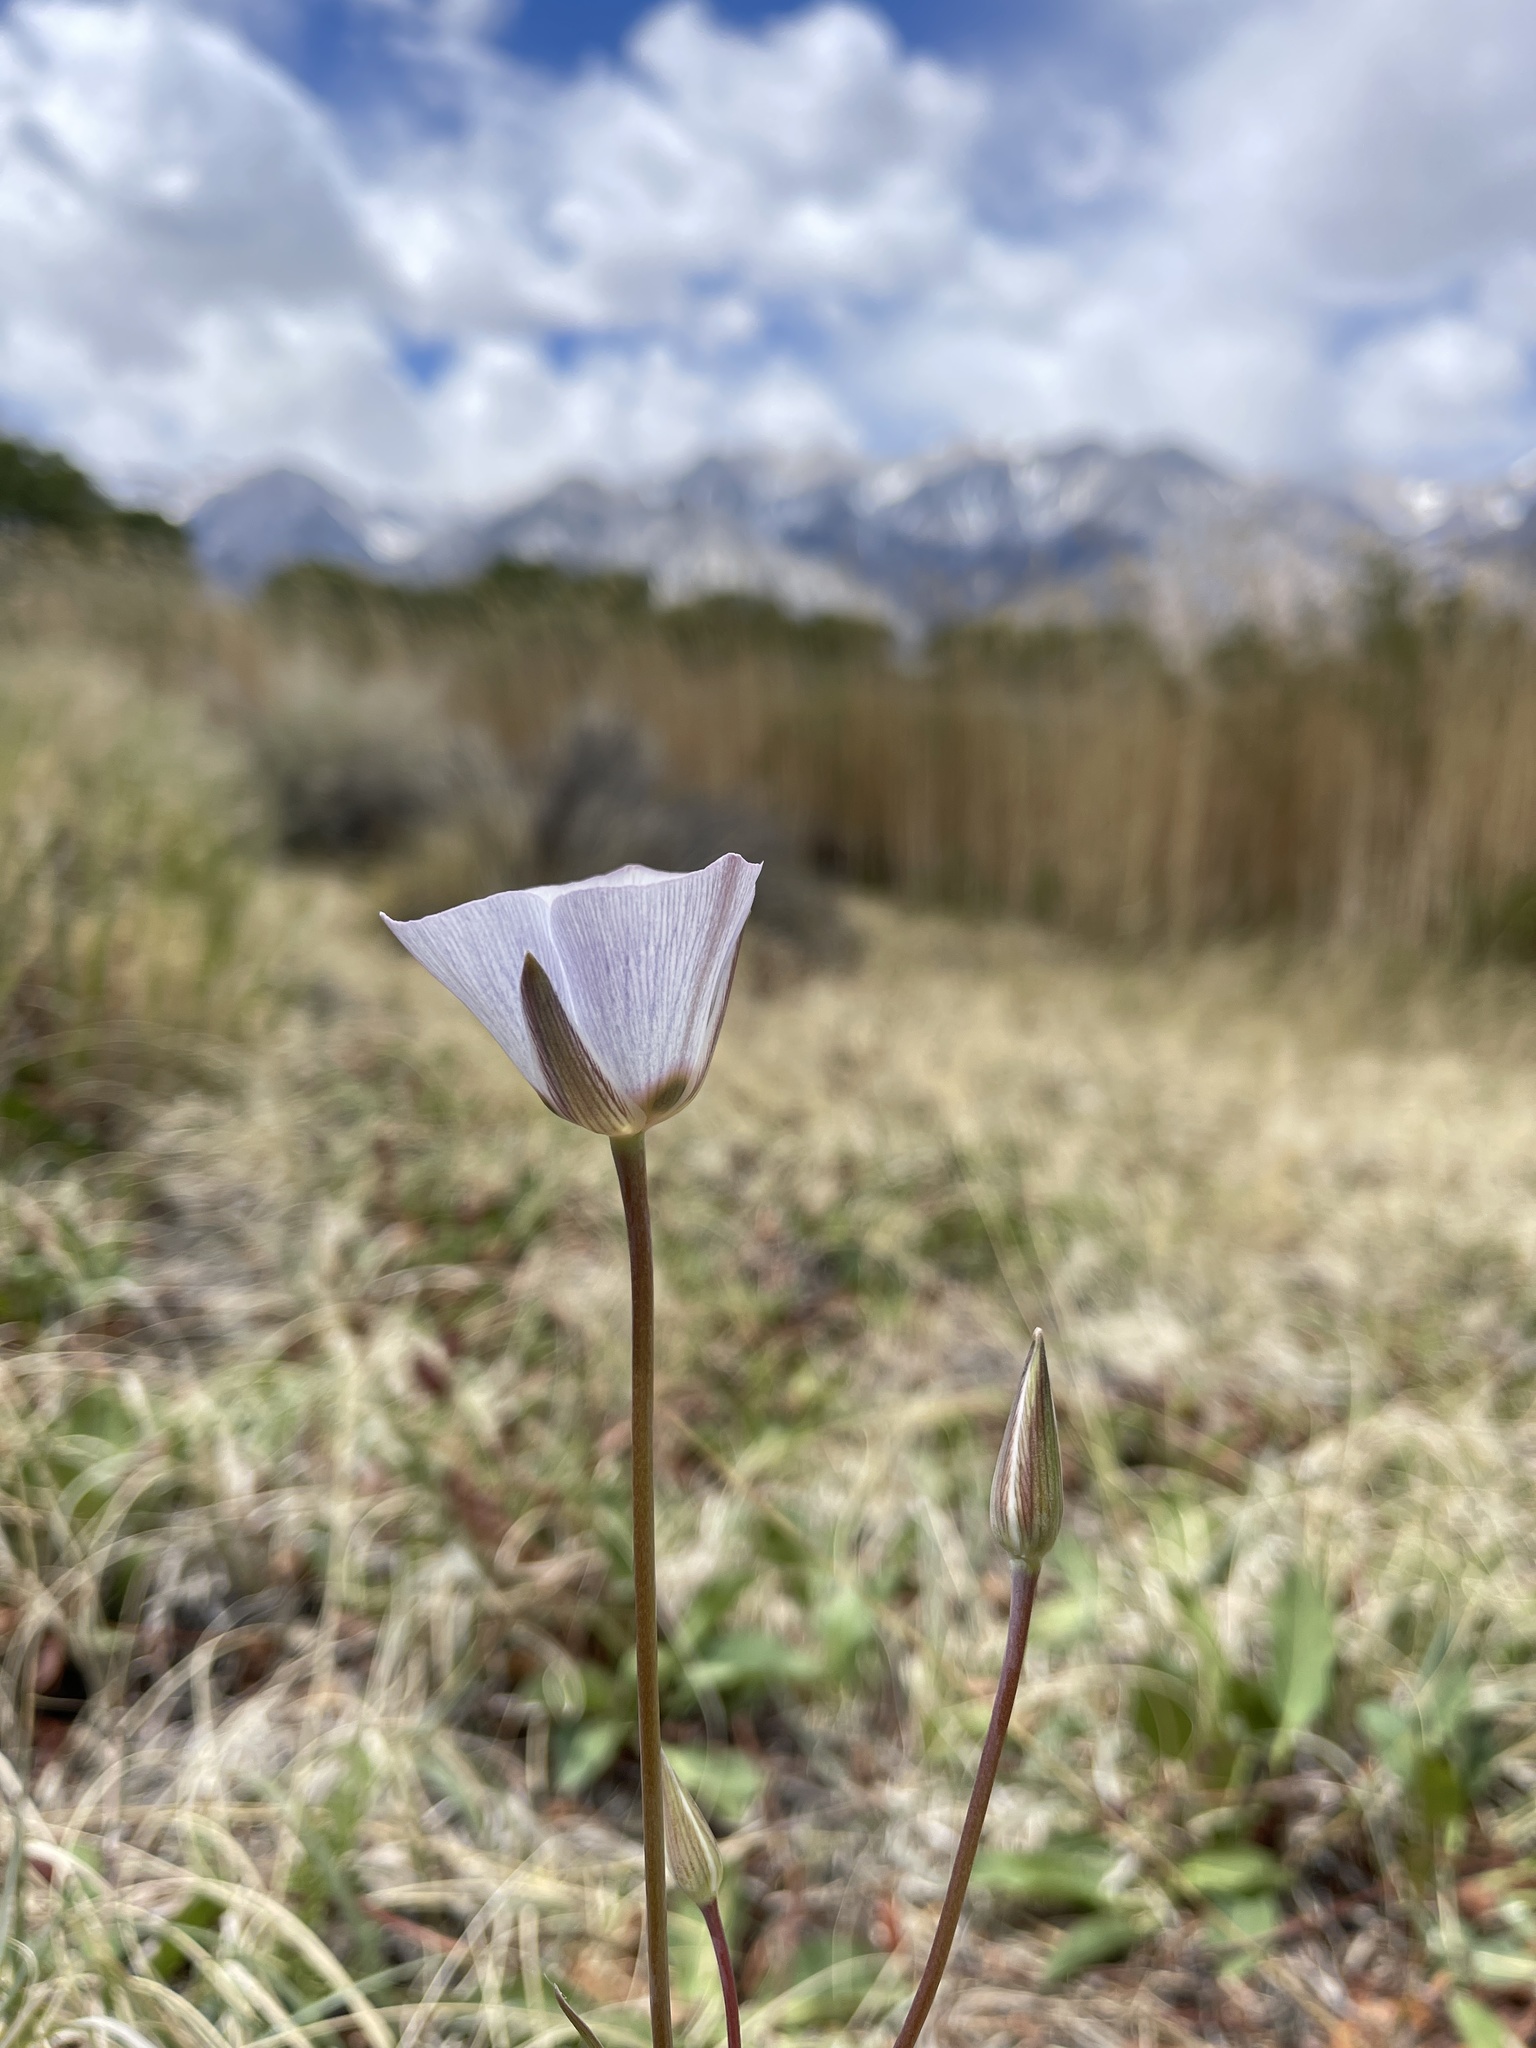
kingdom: Plantae
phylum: Tracheophyta
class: Liliopsida
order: Liliales
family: Liliaceae
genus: Calochortus
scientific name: Calochortus excavatus
